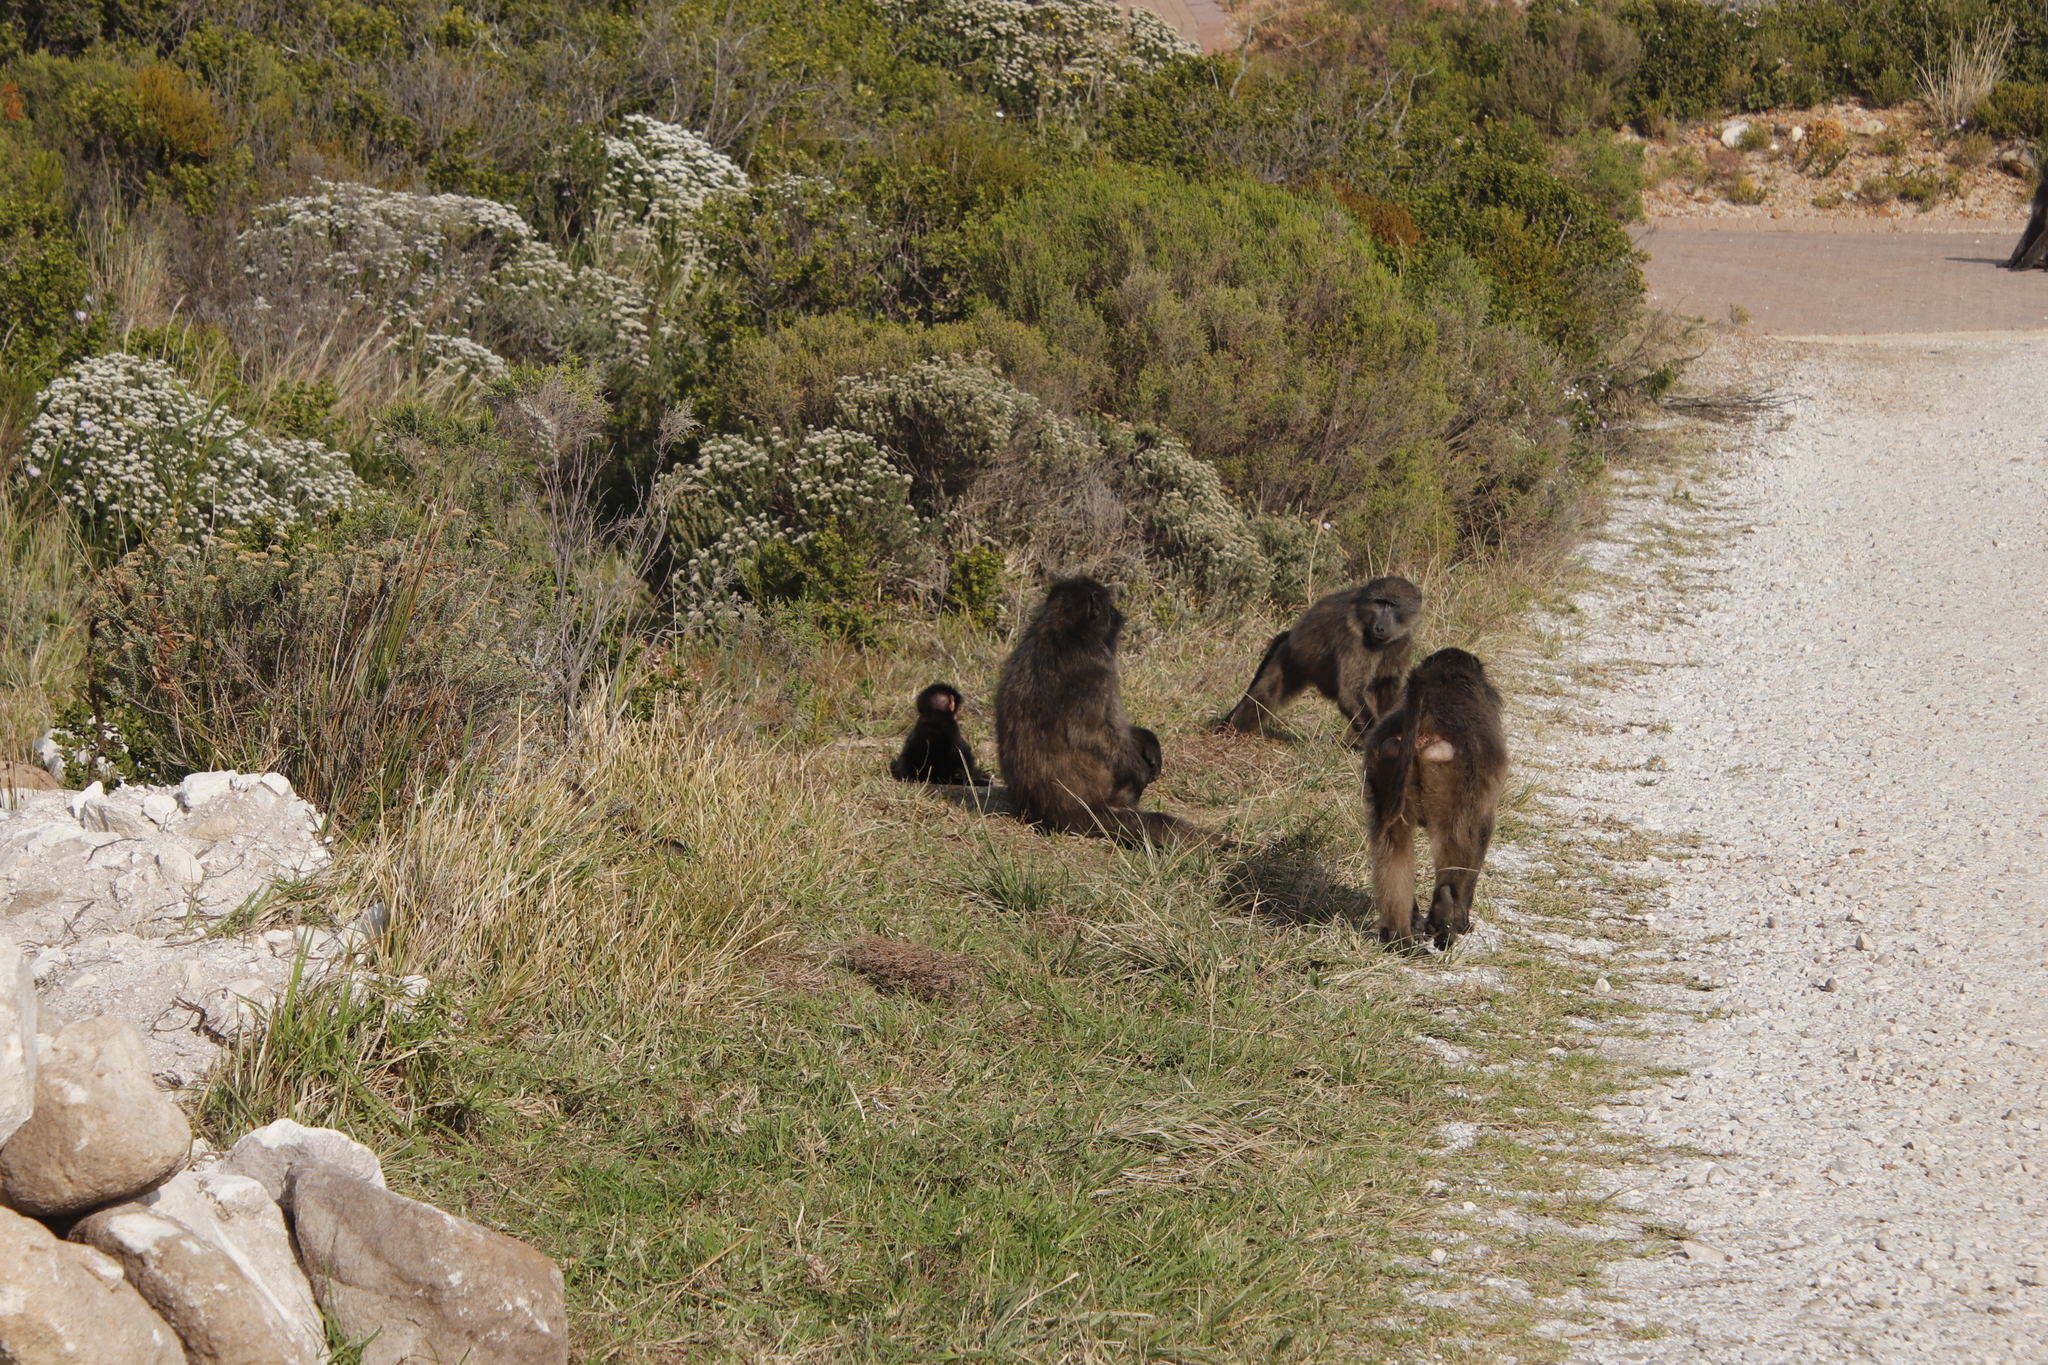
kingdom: Animalia
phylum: Chordata
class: Mammalia
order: Primates
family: Cercopithecidae
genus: Papio
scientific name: Papio ursinus
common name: Chacma baboon
